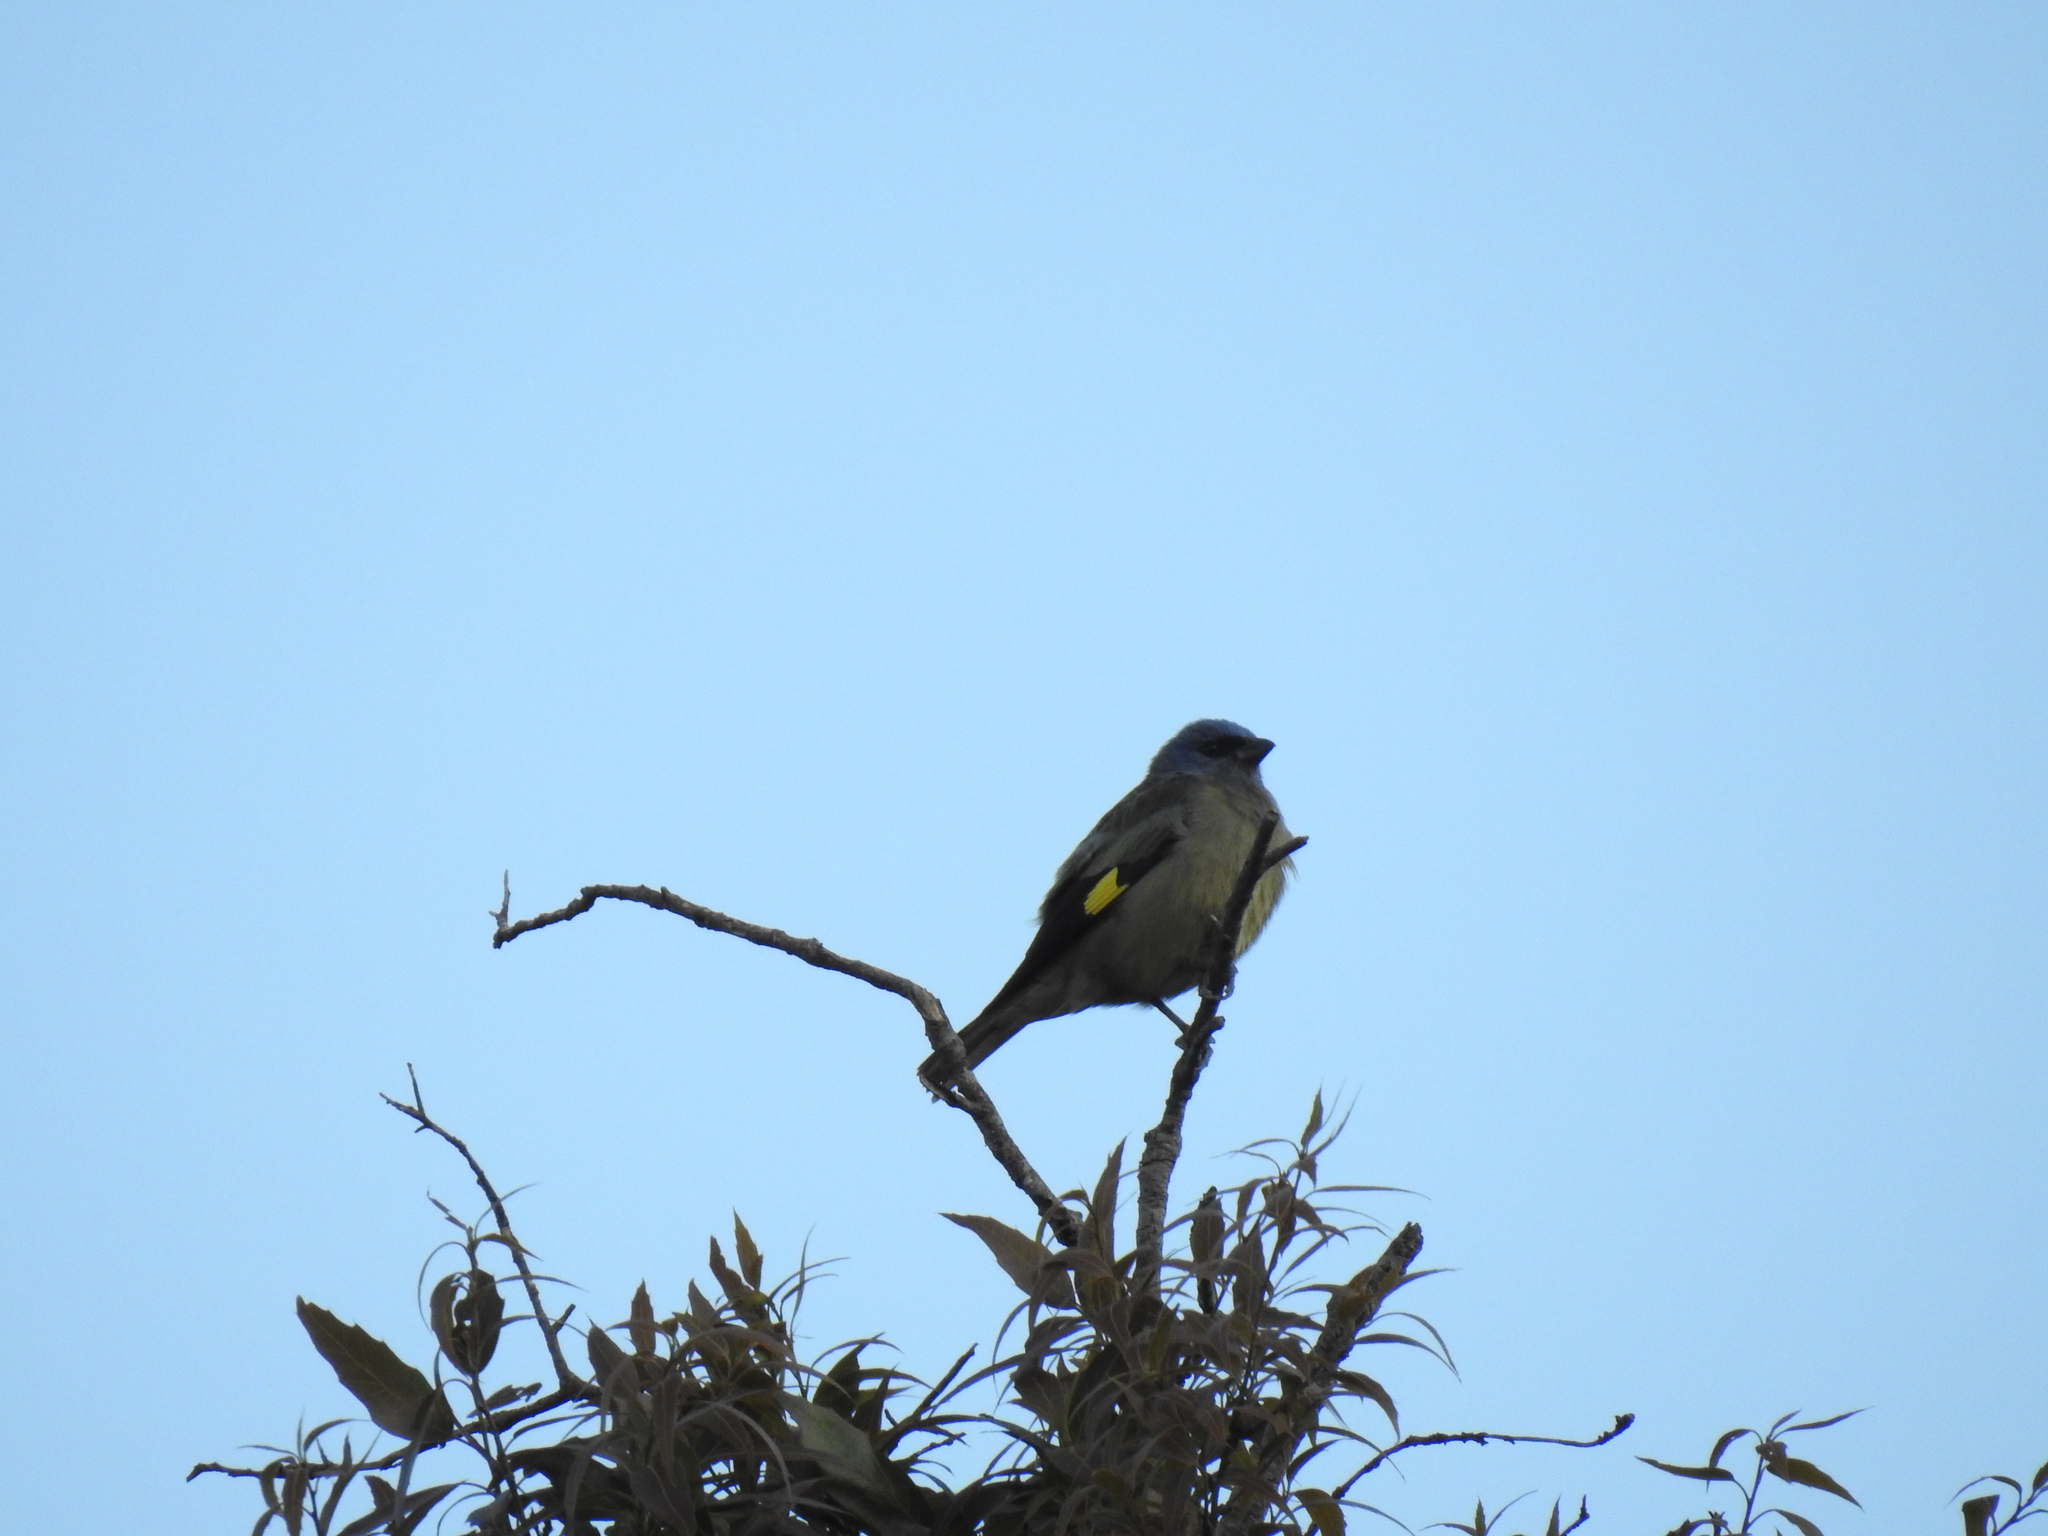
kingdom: Animalia
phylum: Chordata
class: Aves
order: Passeriformes
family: Thraupidae
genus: Thraupis
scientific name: Thraupis abbas
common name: Yellow-winged tanager
